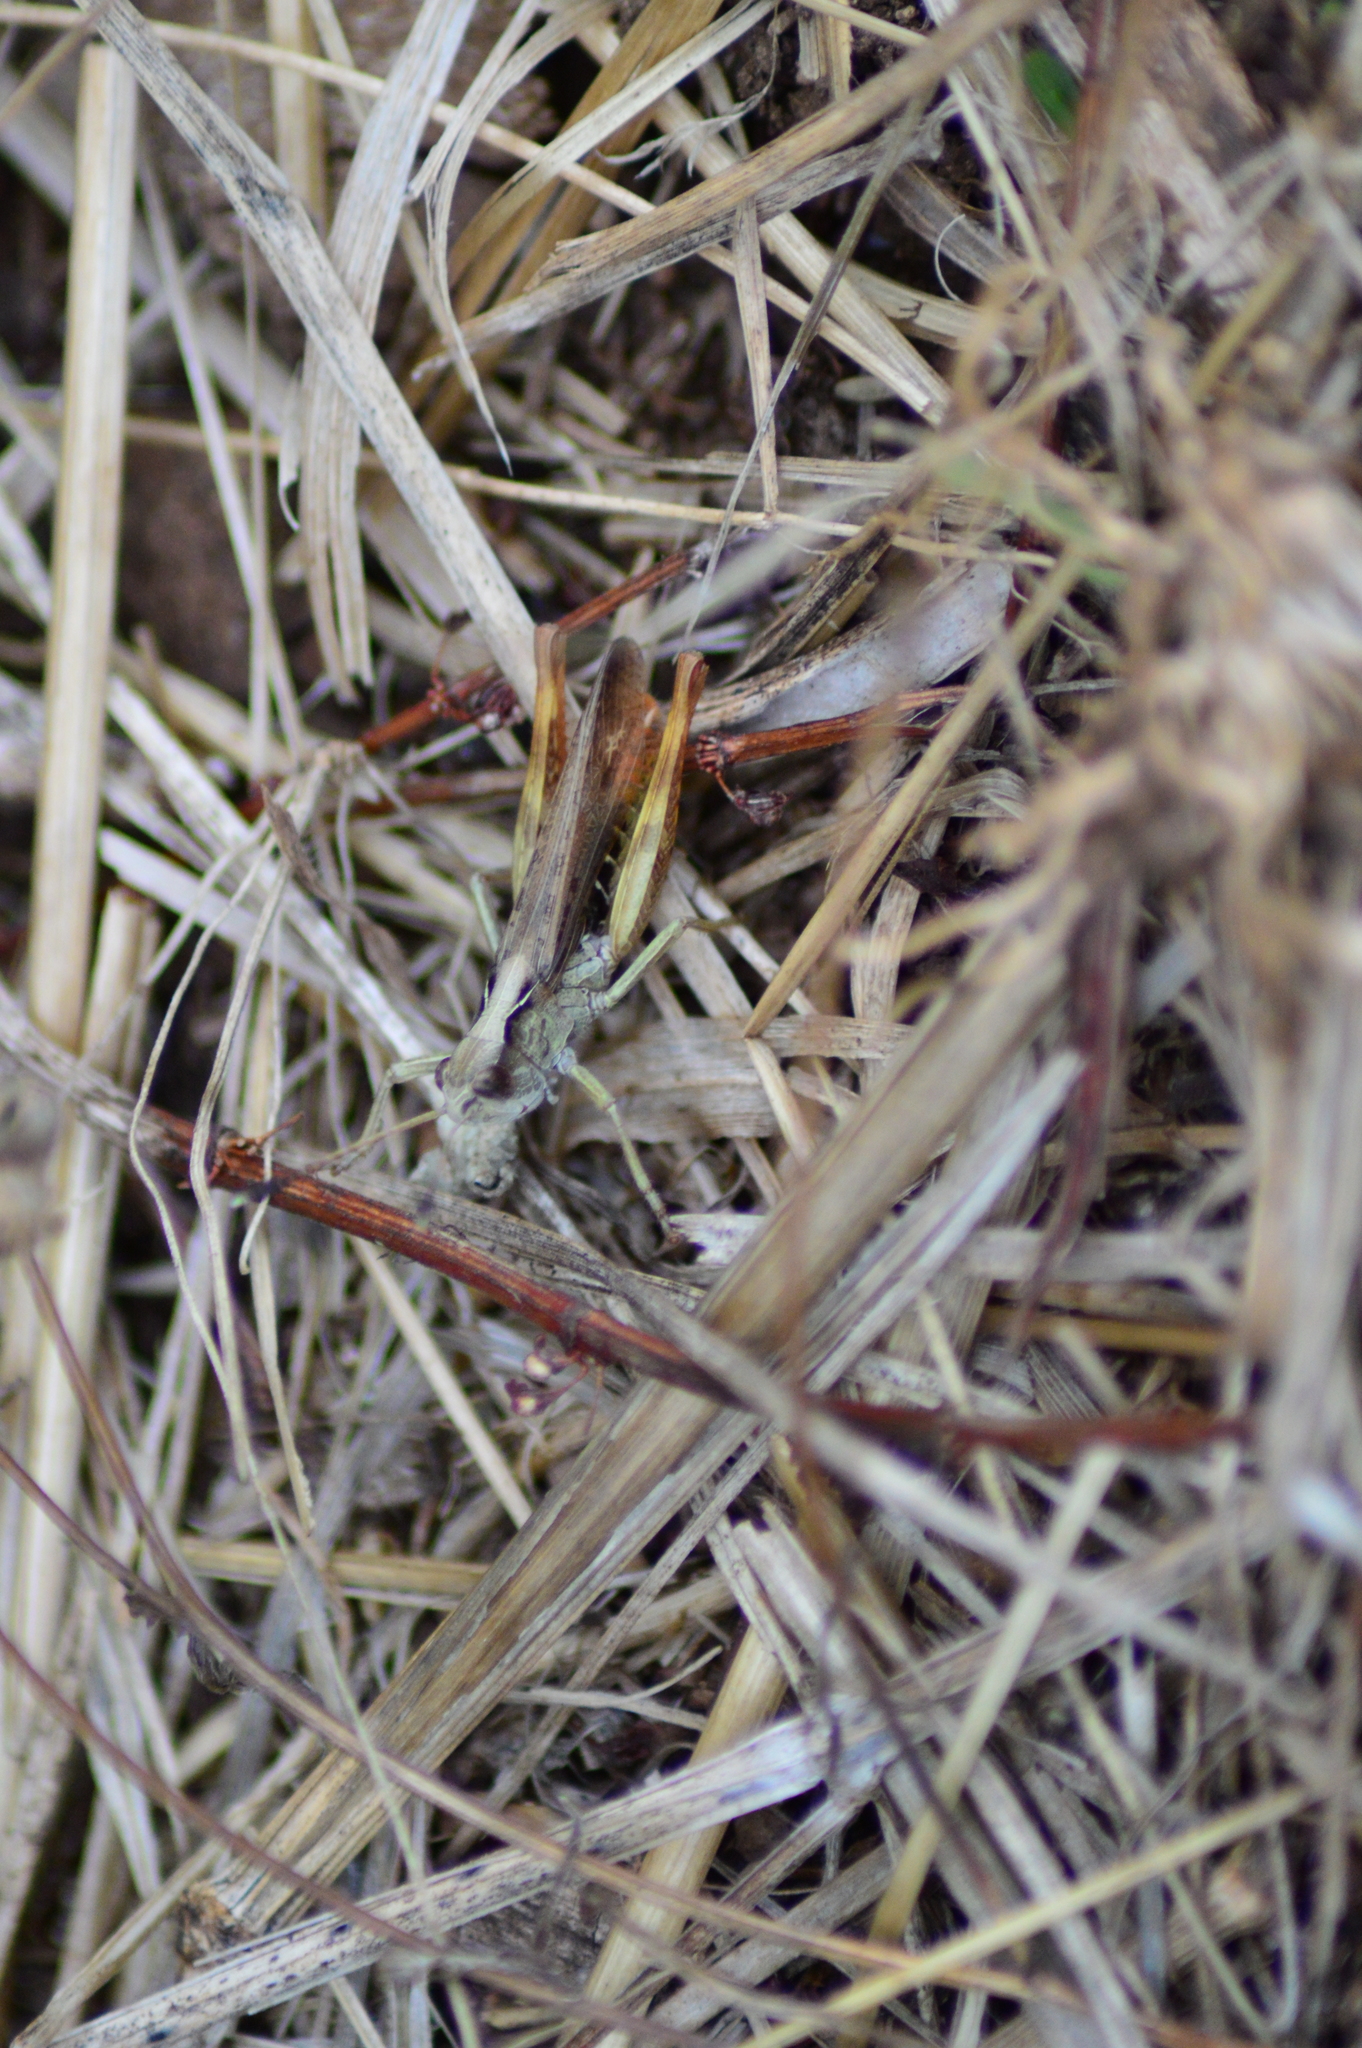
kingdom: Animalia
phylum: Arthropoda
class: Insecta
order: Orthoptera
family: Acrididae
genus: Gomphocerippus
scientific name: Gomphocerippus rufus
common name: Rufous grasshopper
